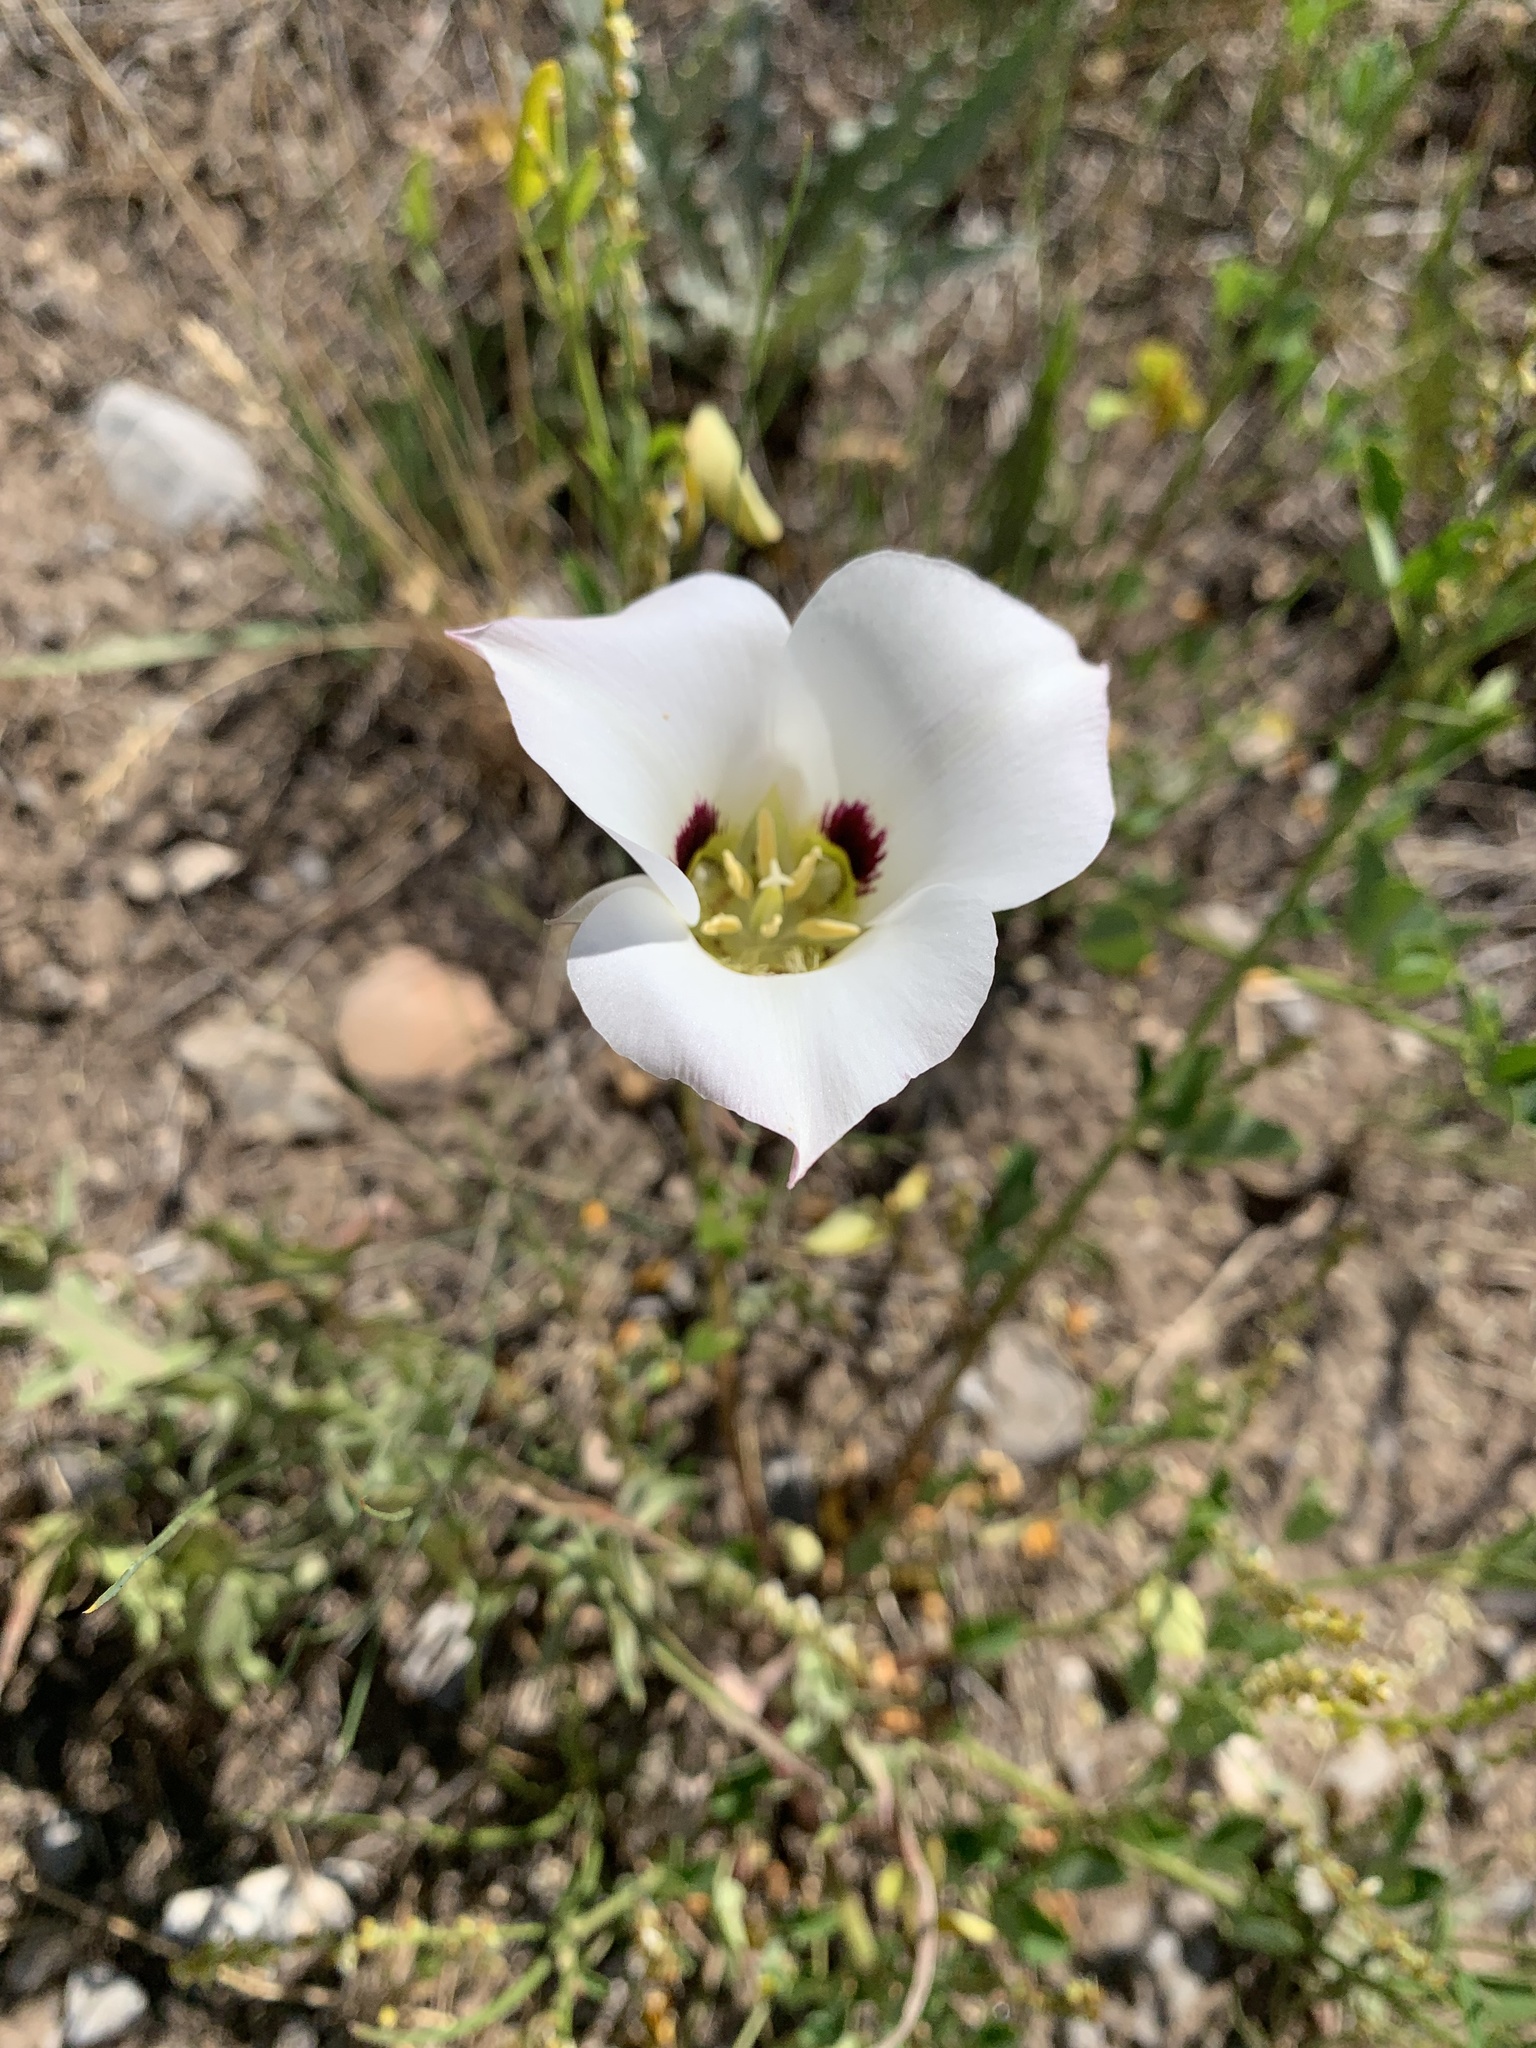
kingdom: Plantae
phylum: Tracheophyta
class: Liliopsida
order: Liliales
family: Liliaceae
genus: Calochortus
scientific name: Calochortus nuttallii
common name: Sego-lily
